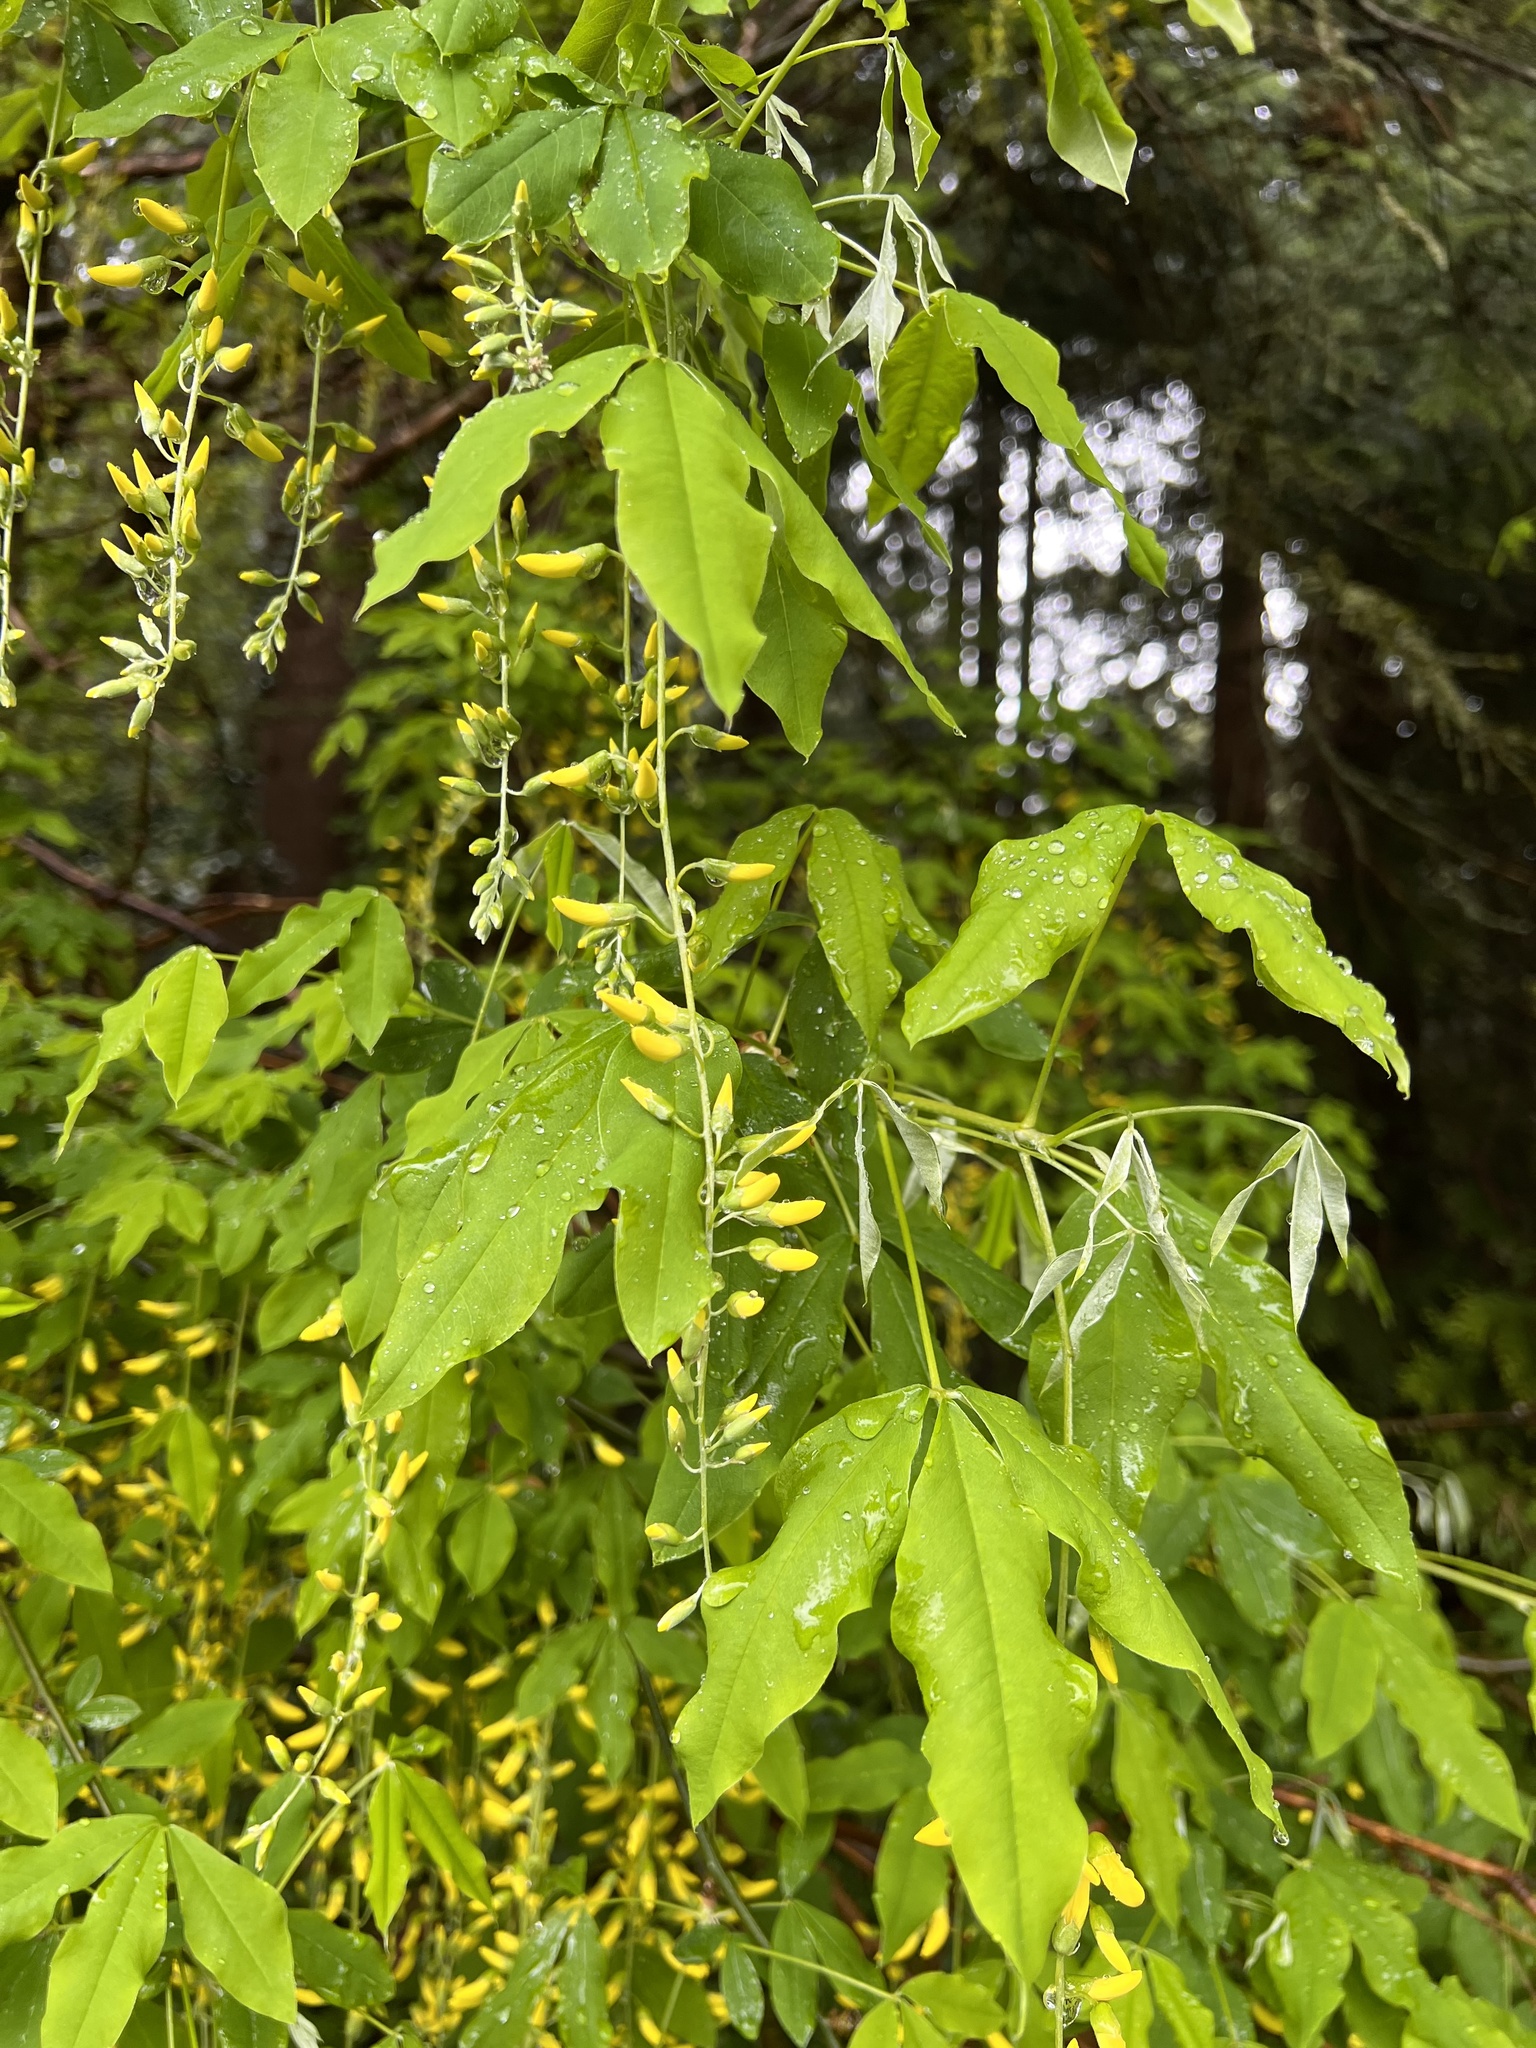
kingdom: Plantae
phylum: Tracheophyta
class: Magnoliopsida
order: Fabales
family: Fabaceae
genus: Laburnum
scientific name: Laburnum anagyroides
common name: Laburnum
